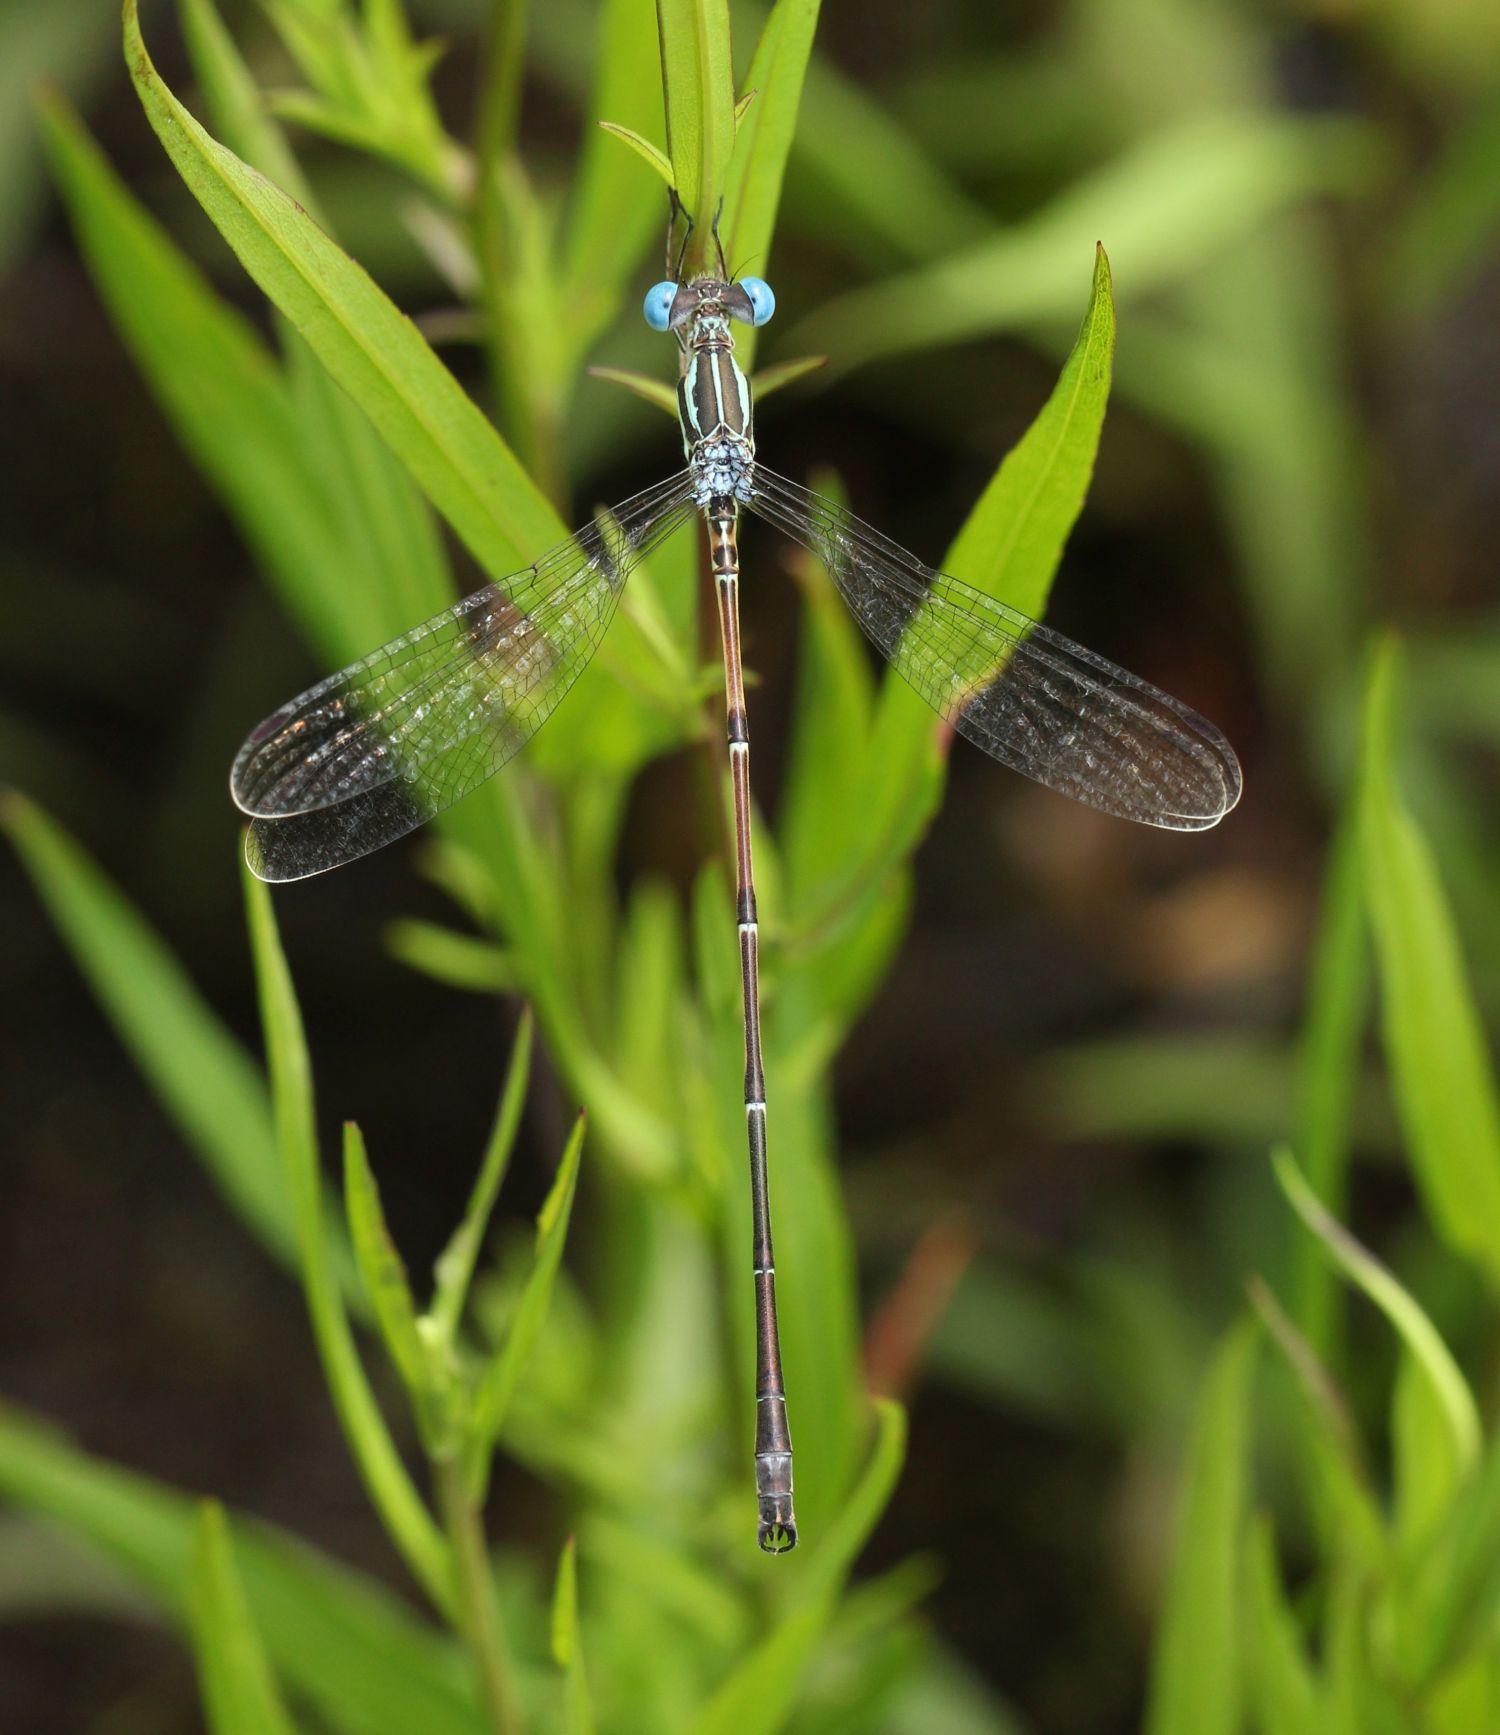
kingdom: Animalia
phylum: Arthropoda
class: Insecta
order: Odonata
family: Lestidae
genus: Lestes
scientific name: Lestes rectangularis
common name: Slender spreadwing
